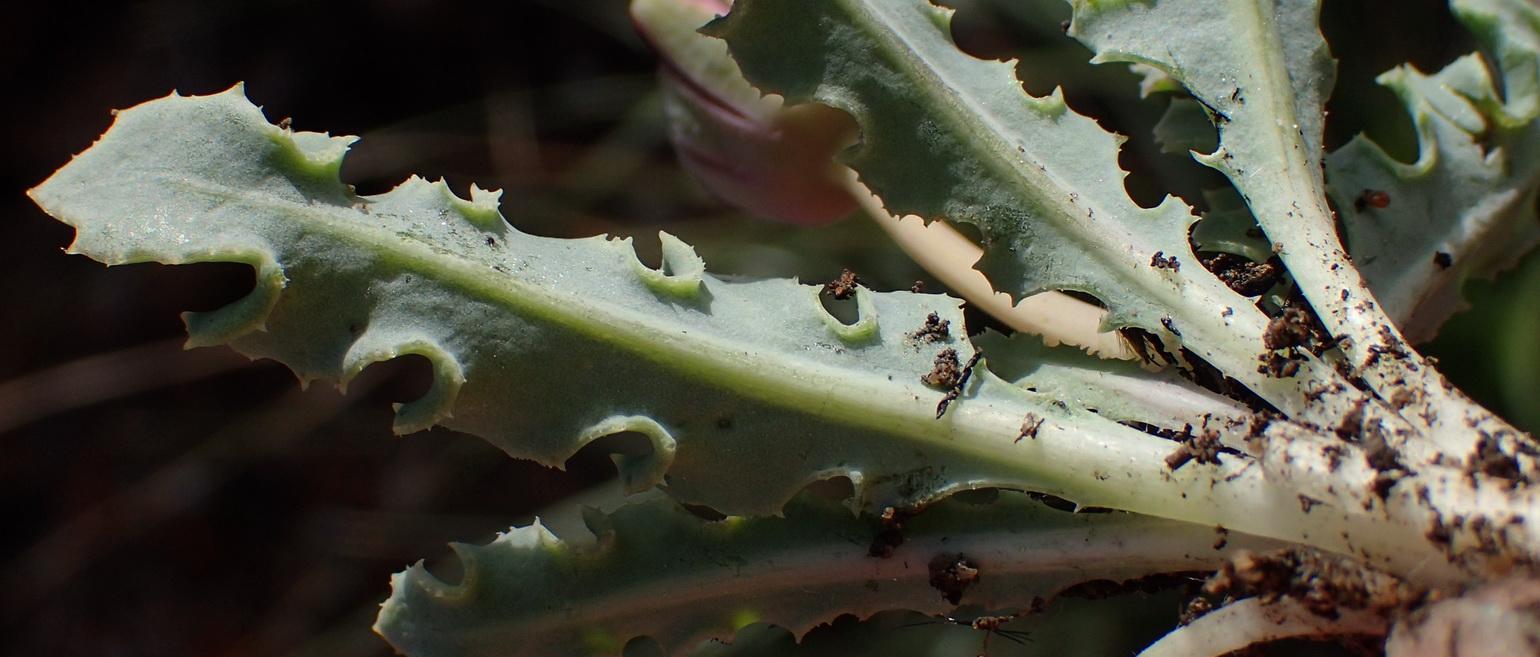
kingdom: Plantae
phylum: Tracheophyta
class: Magnoliopsida
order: Asterales
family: Asteraceae
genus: Othonna
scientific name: Othonna auriculifolia
